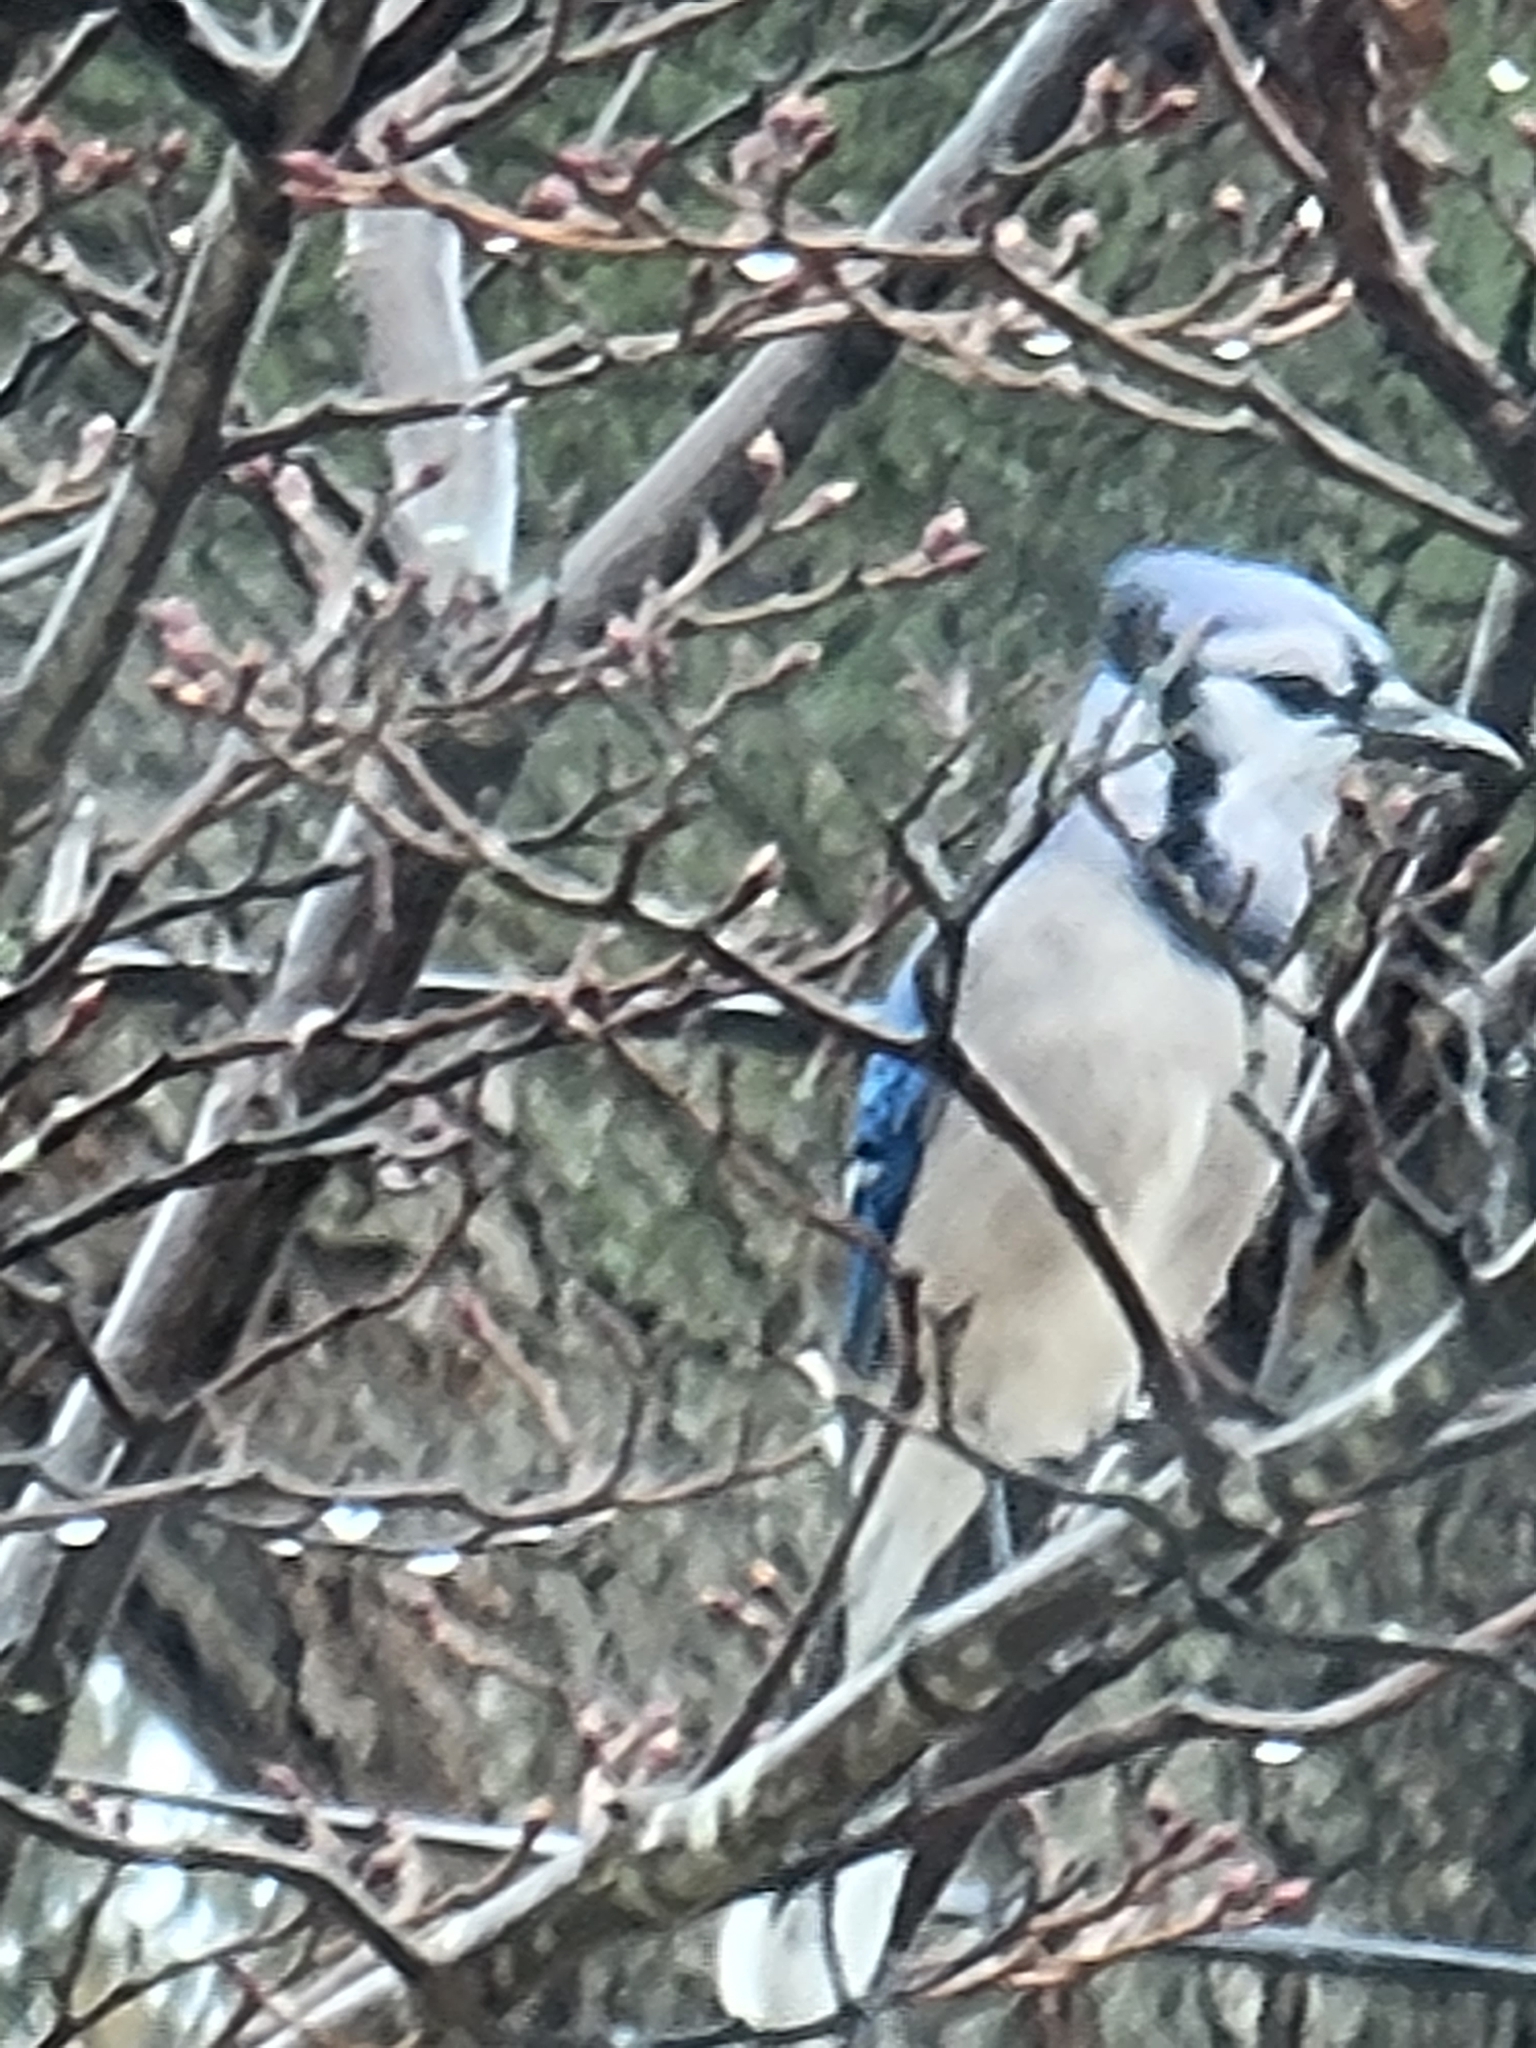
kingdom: Animalia
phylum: Chordata
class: Aves
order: Passeriformes
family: Corvidae
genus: Cyanocitta
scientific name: Cyanocitta cristata
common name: Blue jay
